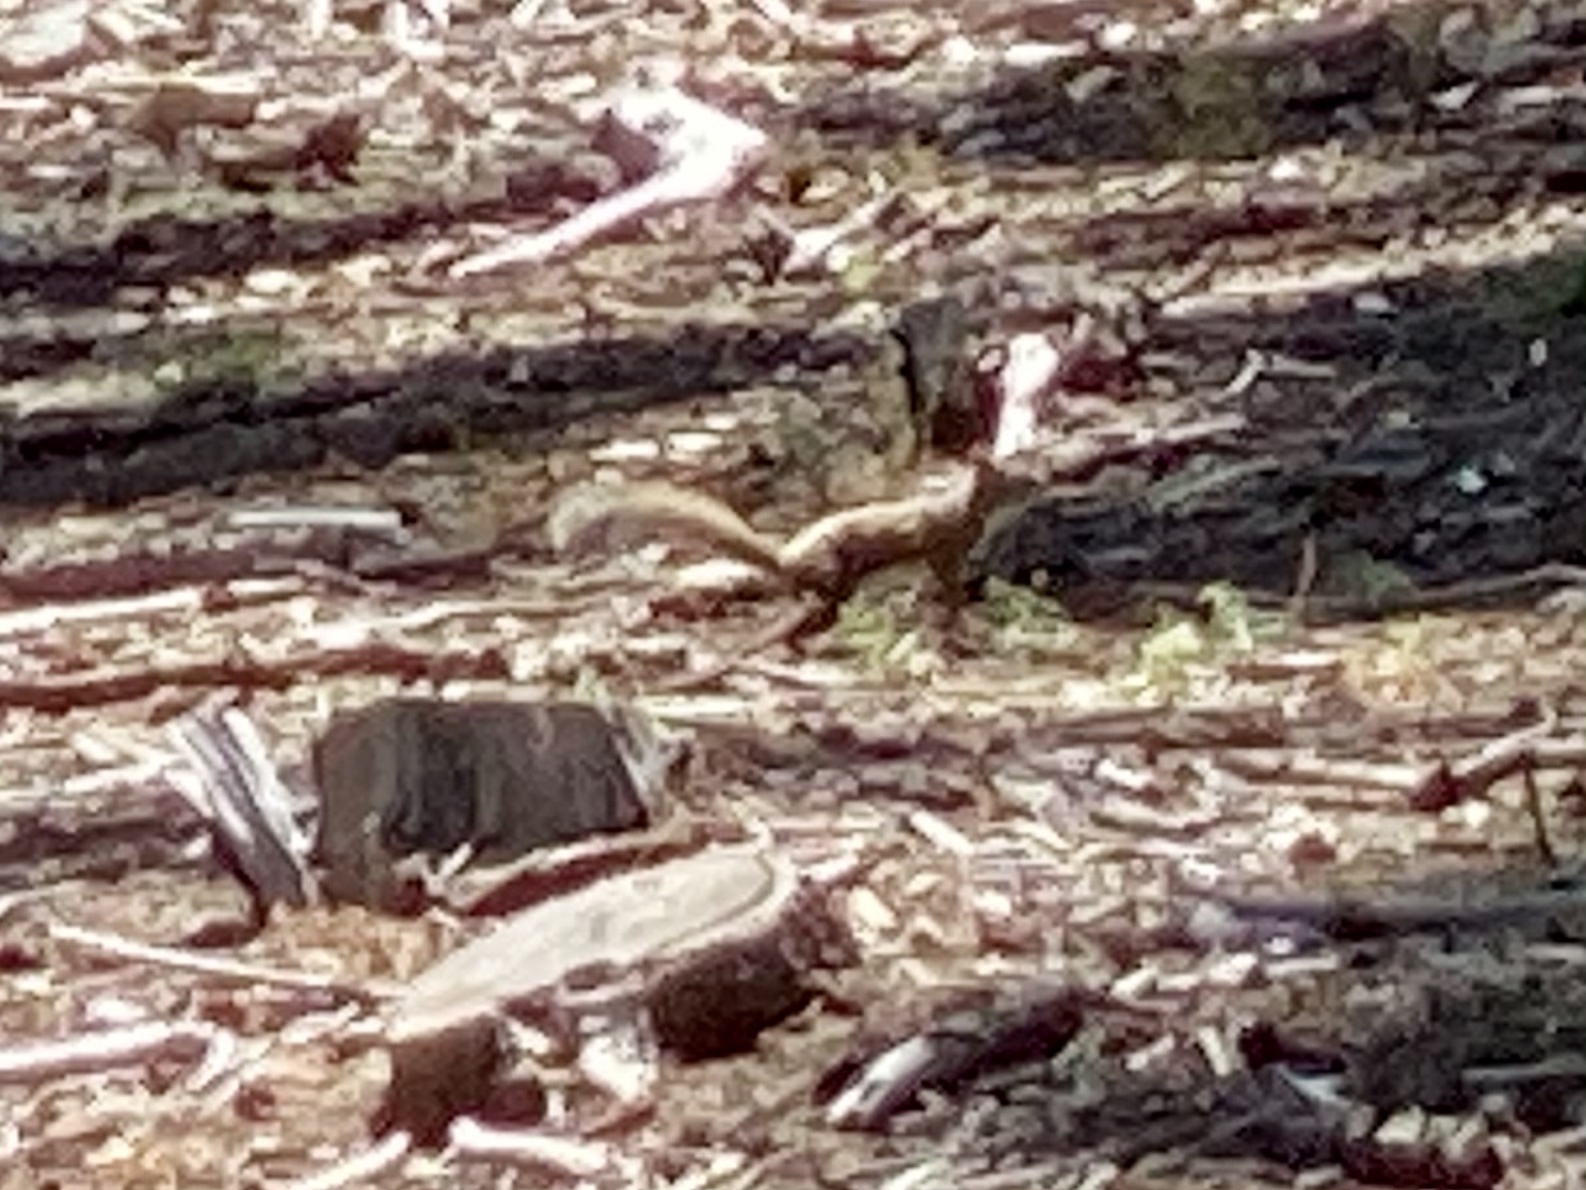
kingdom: Animalia
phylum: Chordata
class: Mammalia
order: Rodentia
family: Sciuridae
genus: Tamiasciurus
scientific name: Tamiasciurus hudsonicus
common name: Red squirrel
